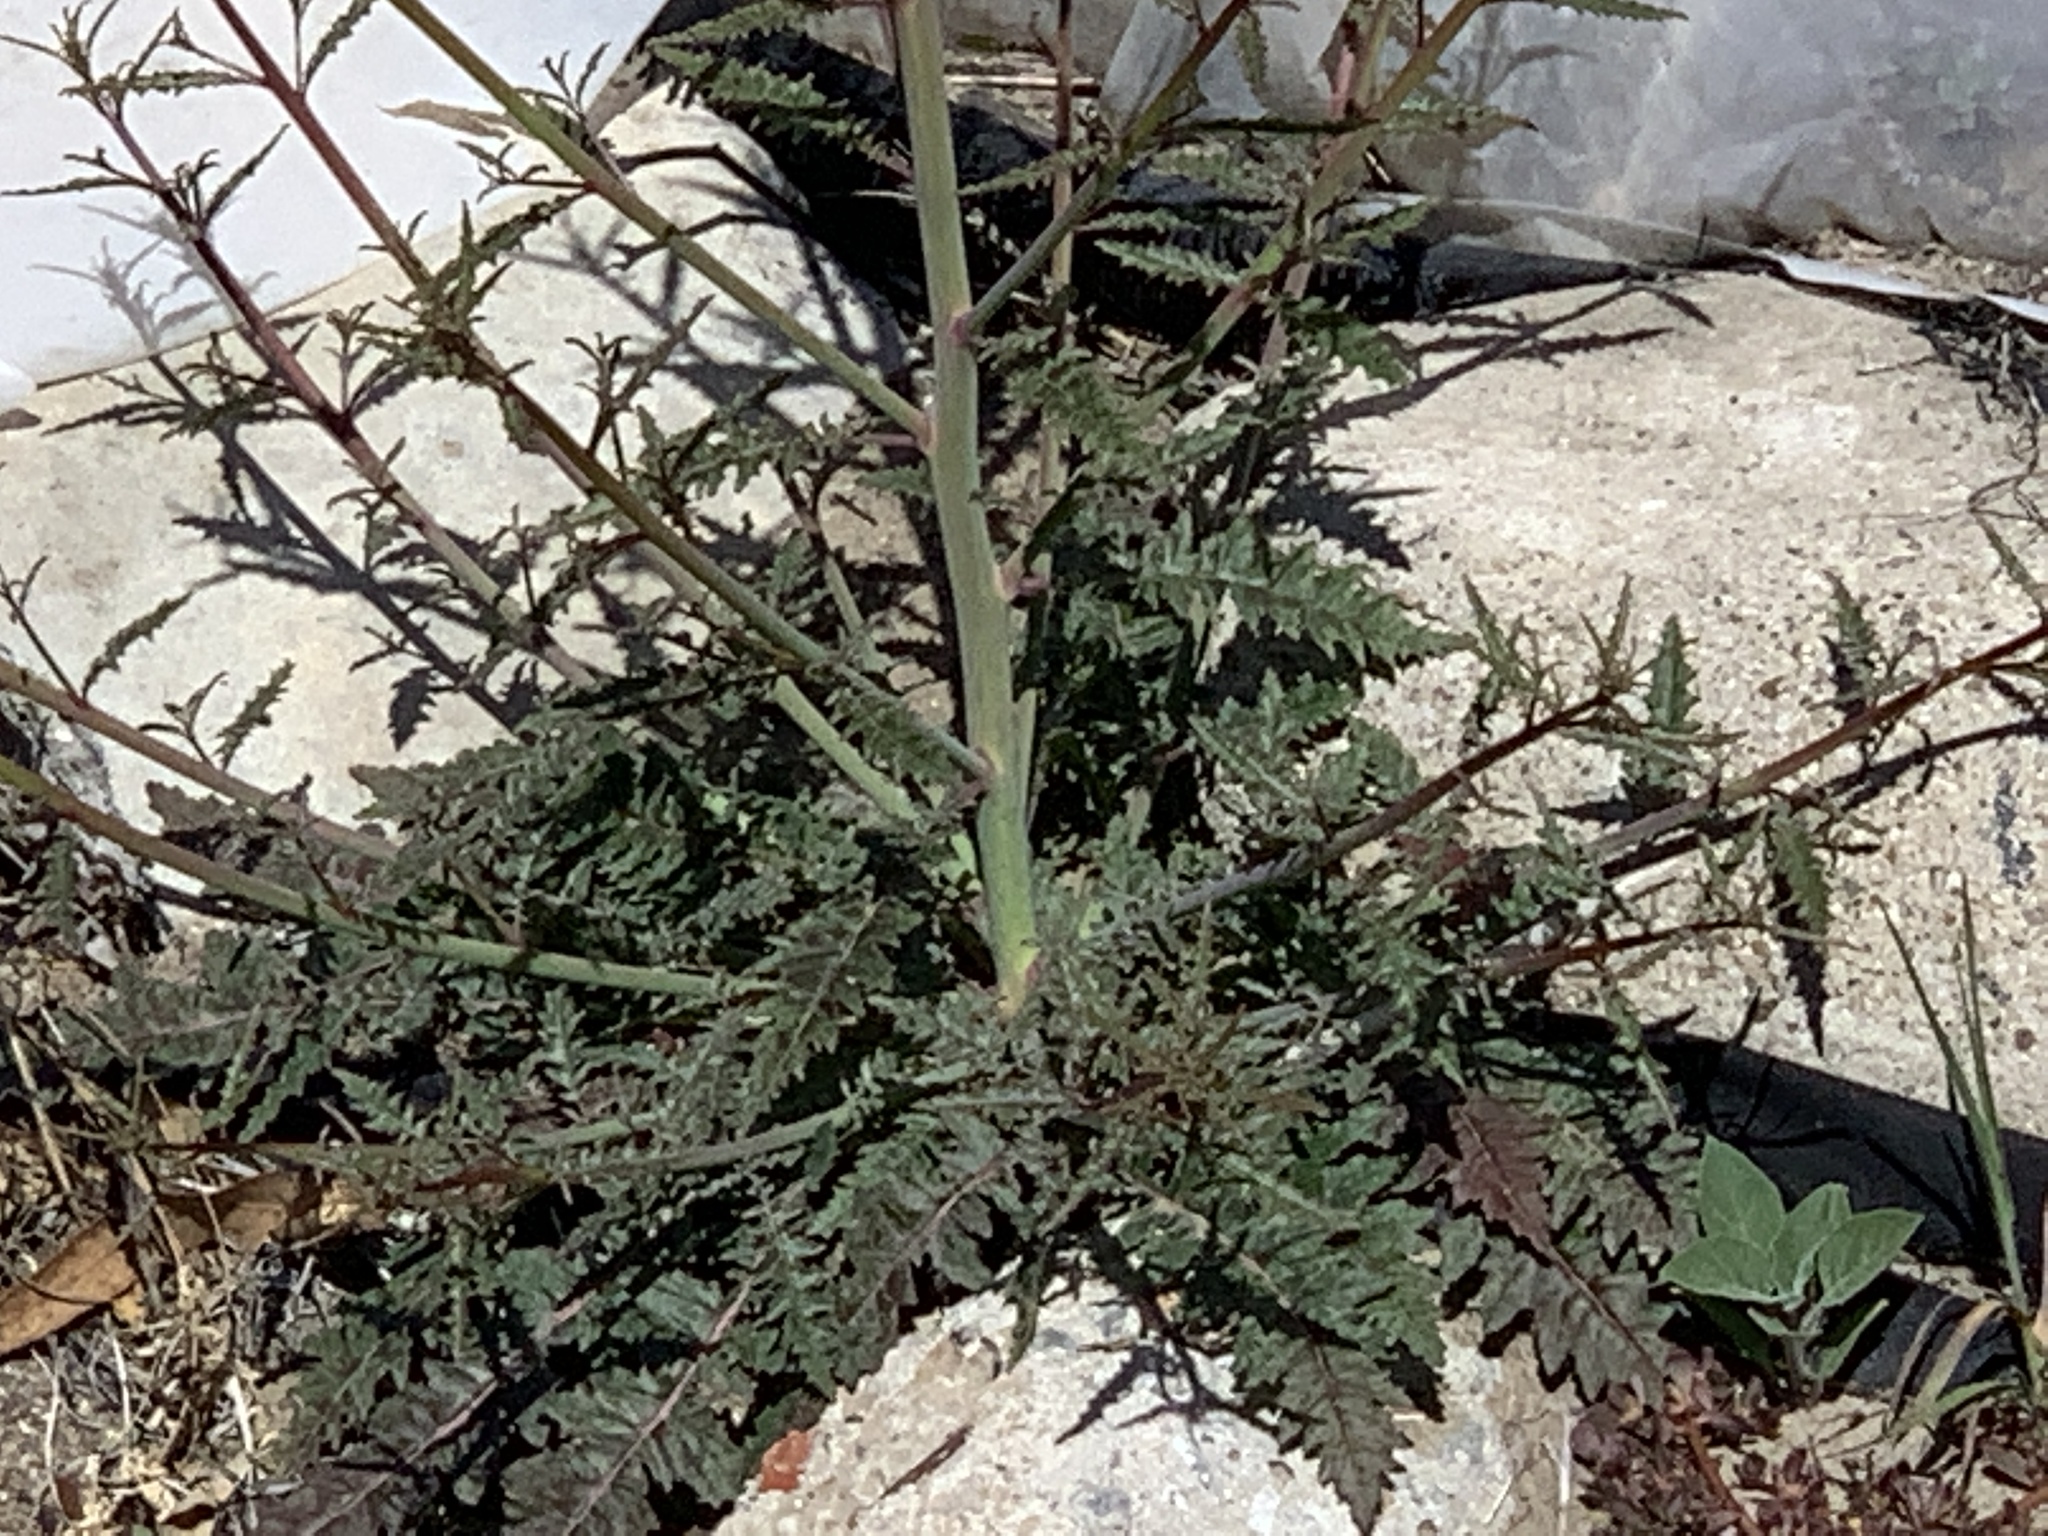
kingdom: Plantae
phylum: Tracheophyta
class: Magnoliopsida
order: Myrtales
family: Onagraceae
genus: Eulobus
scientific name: Eulobus californicus
